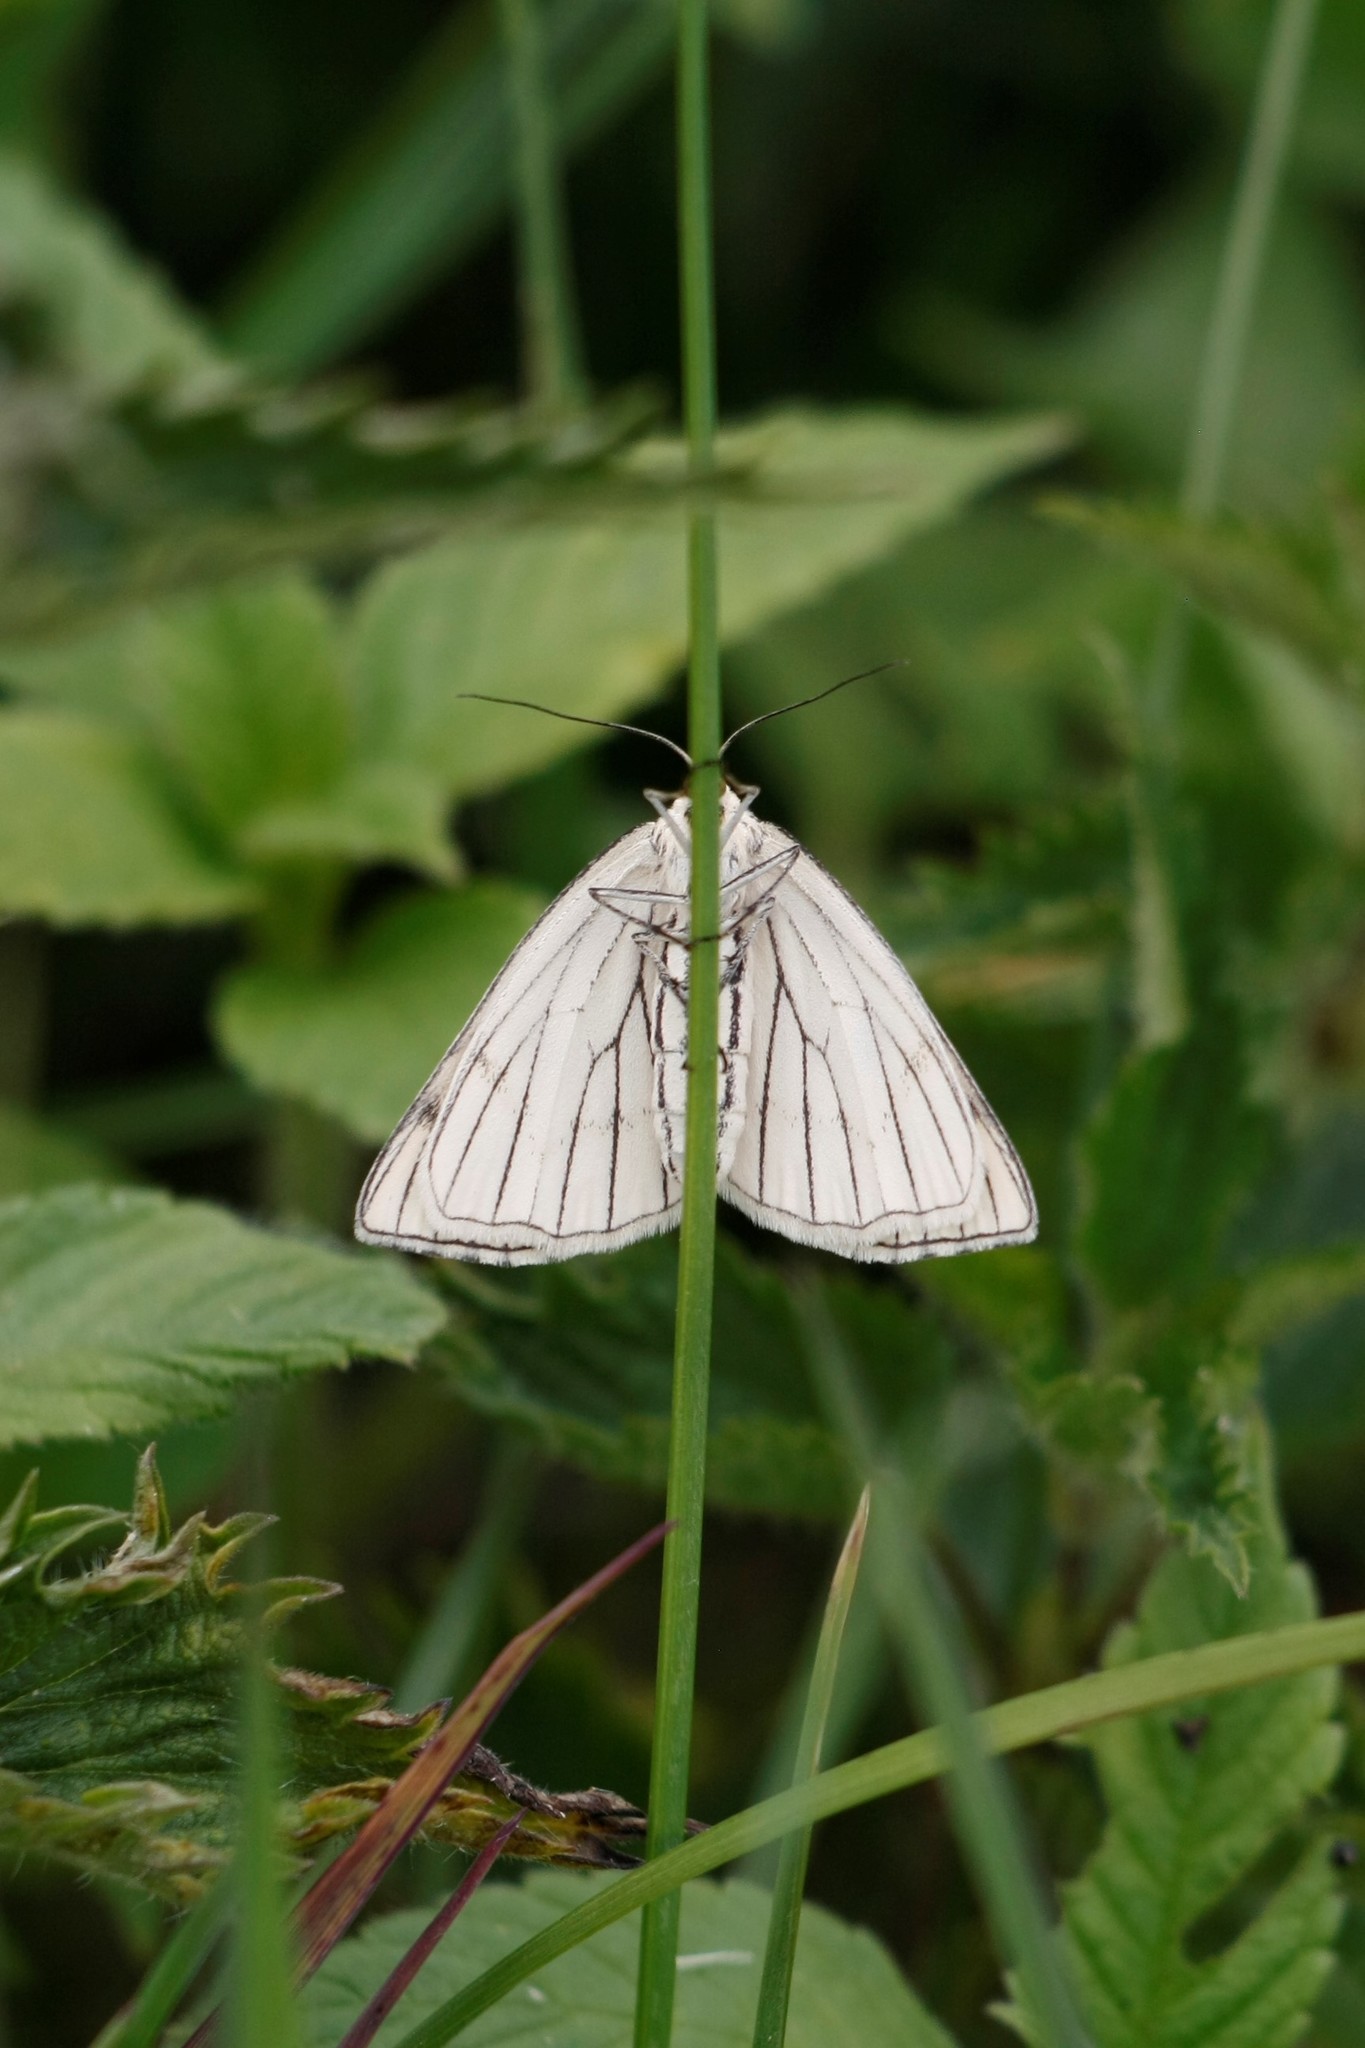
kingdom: Animalia
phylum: Arthropoda
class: Insecta
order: Lepidoptera
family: Geometridae
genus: Siona
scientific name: Siona lineata
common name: Black-veined moth
